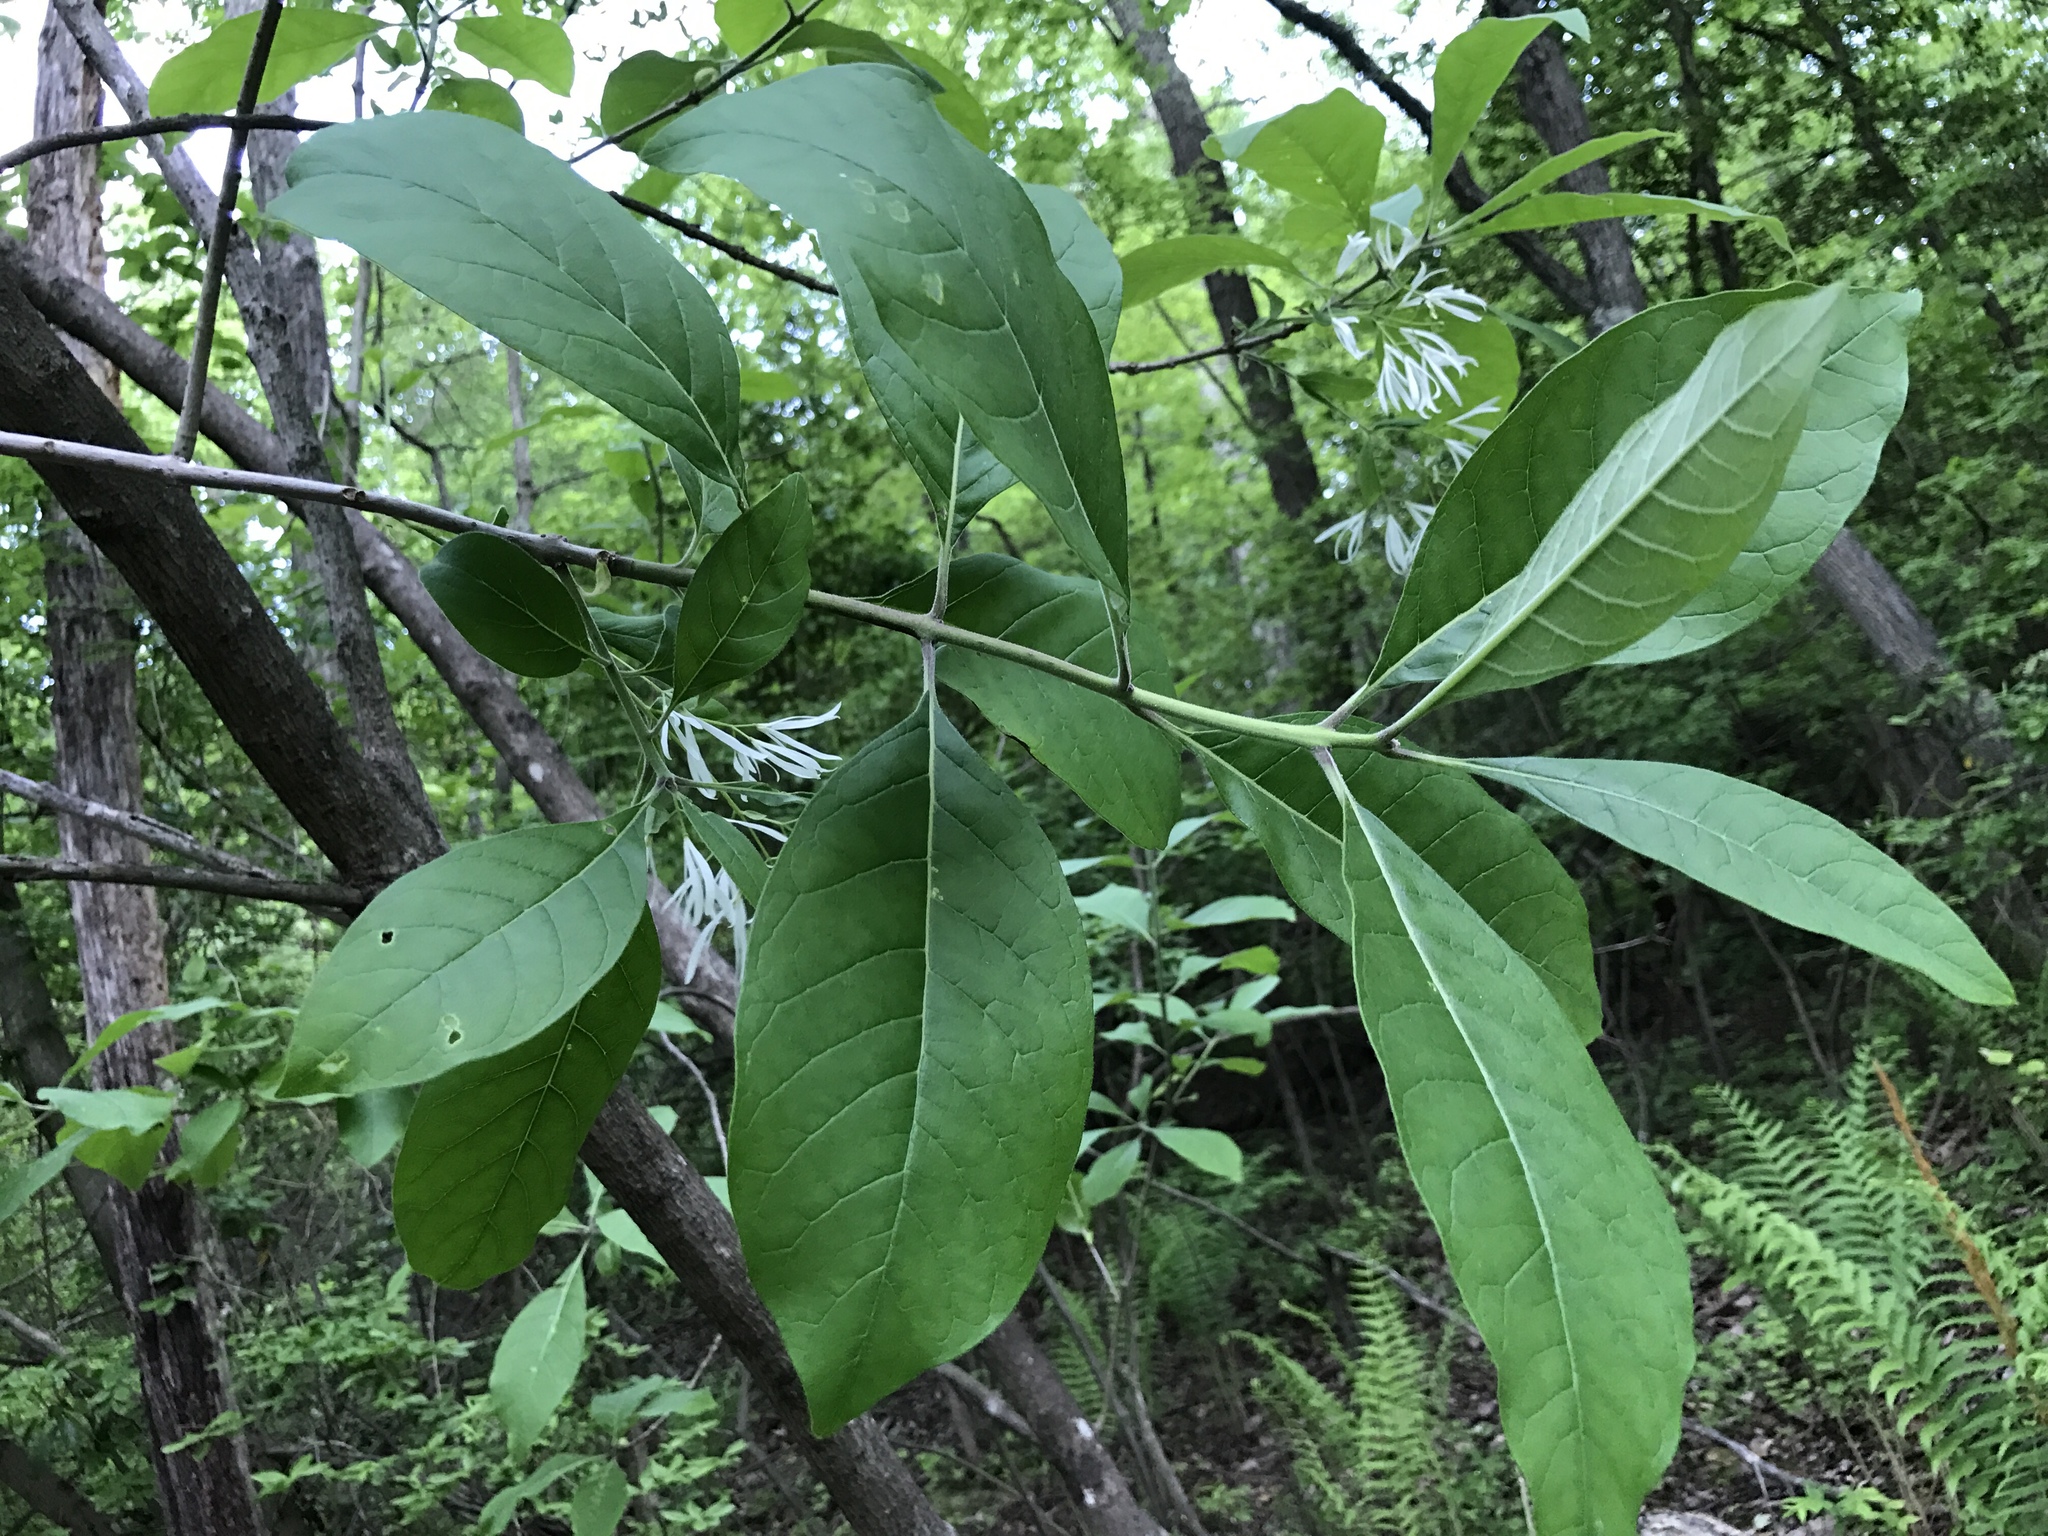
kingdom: Plantae
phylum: Tracheophyta
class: Magnoliopsida
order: Lamiales
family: Oleaceae
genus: Chionanthus
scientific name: Chionanthus virginicus
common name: American fringetree
